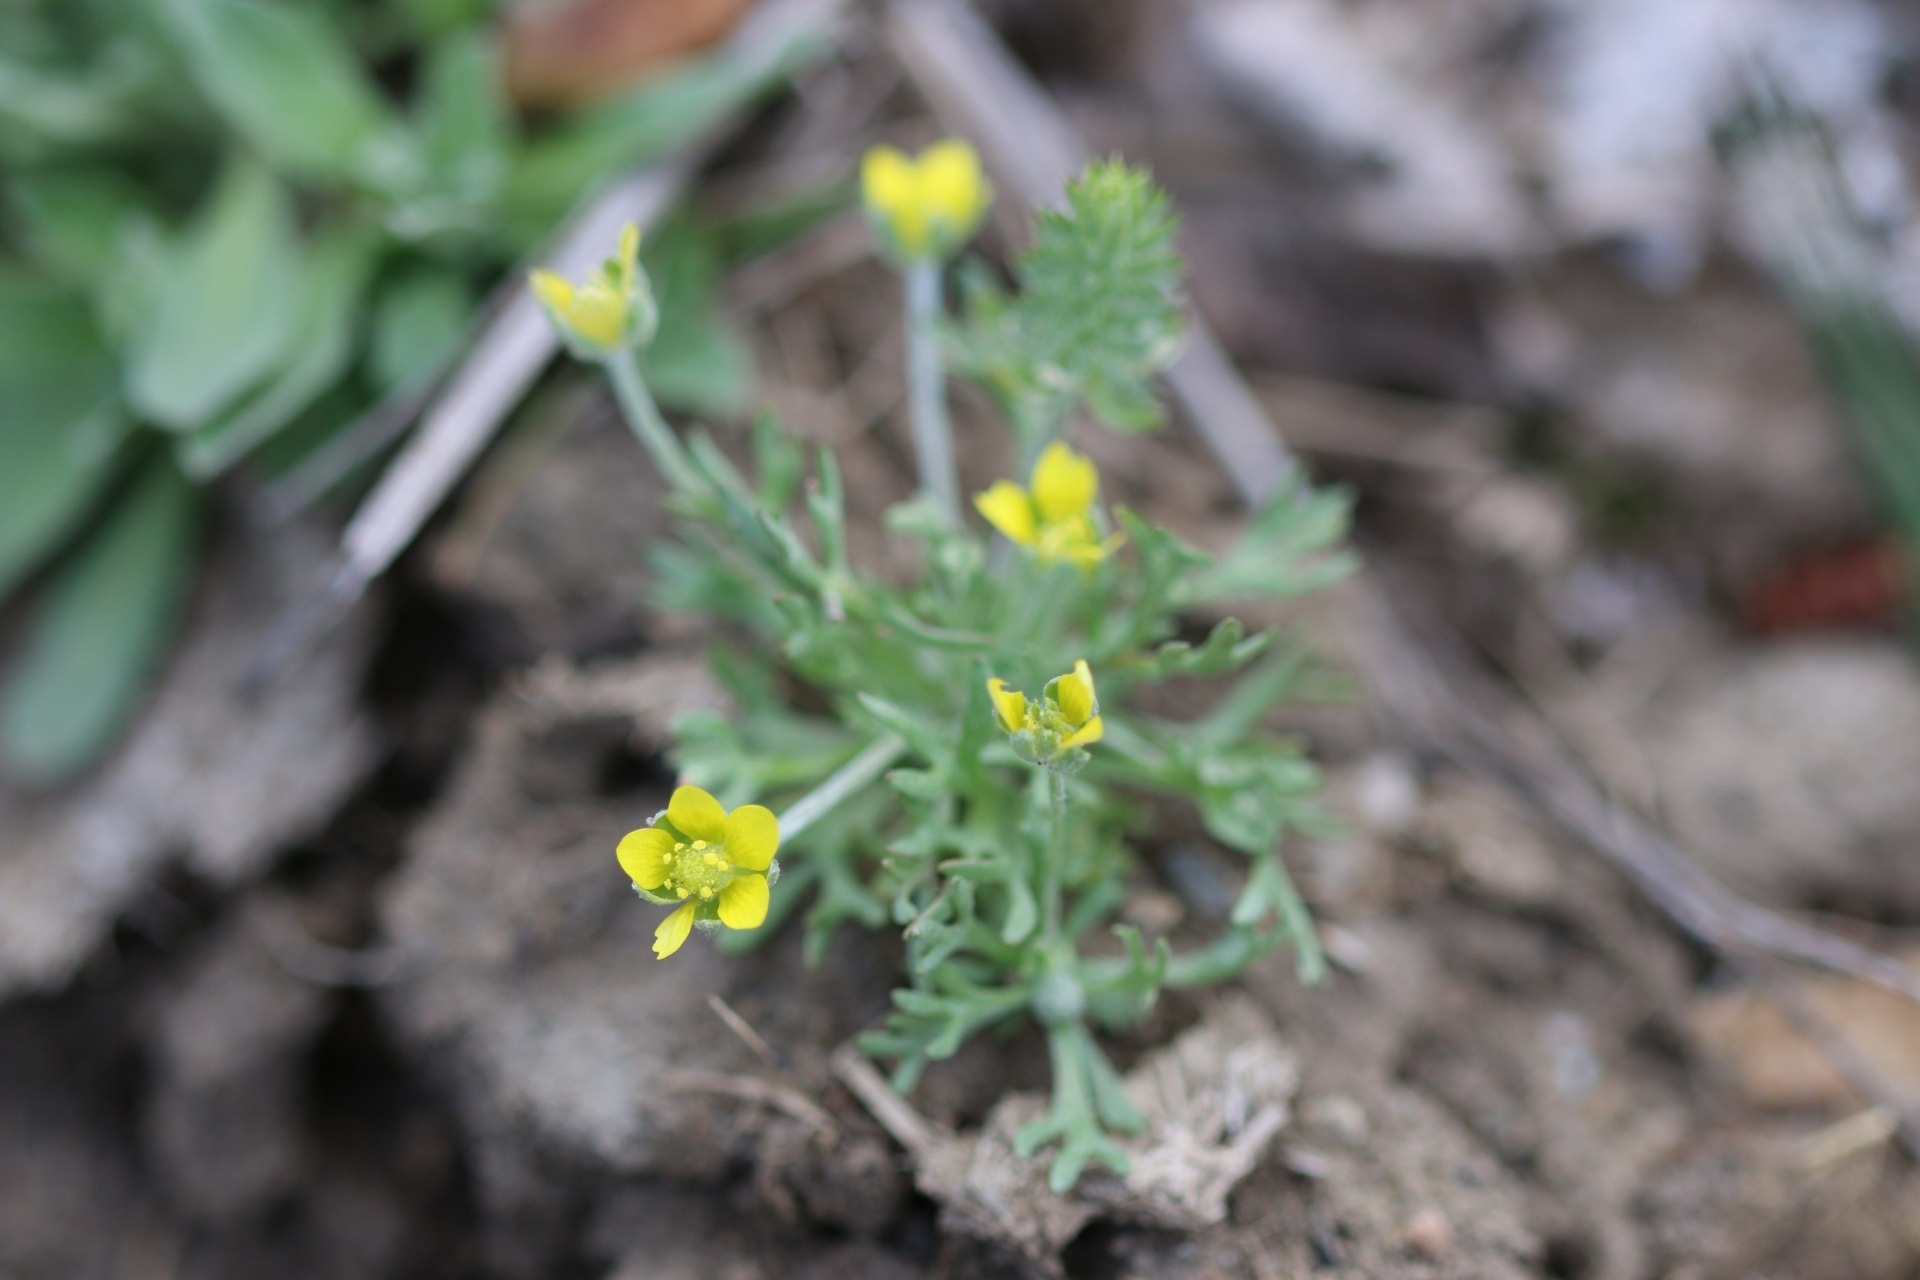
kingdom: Plantae
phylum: Tracheophyta
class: Magnoliopsida
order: Ranunculales
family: Ranunculaceae
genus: Ceratocephala
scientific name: Ceratocephala orthoceras
